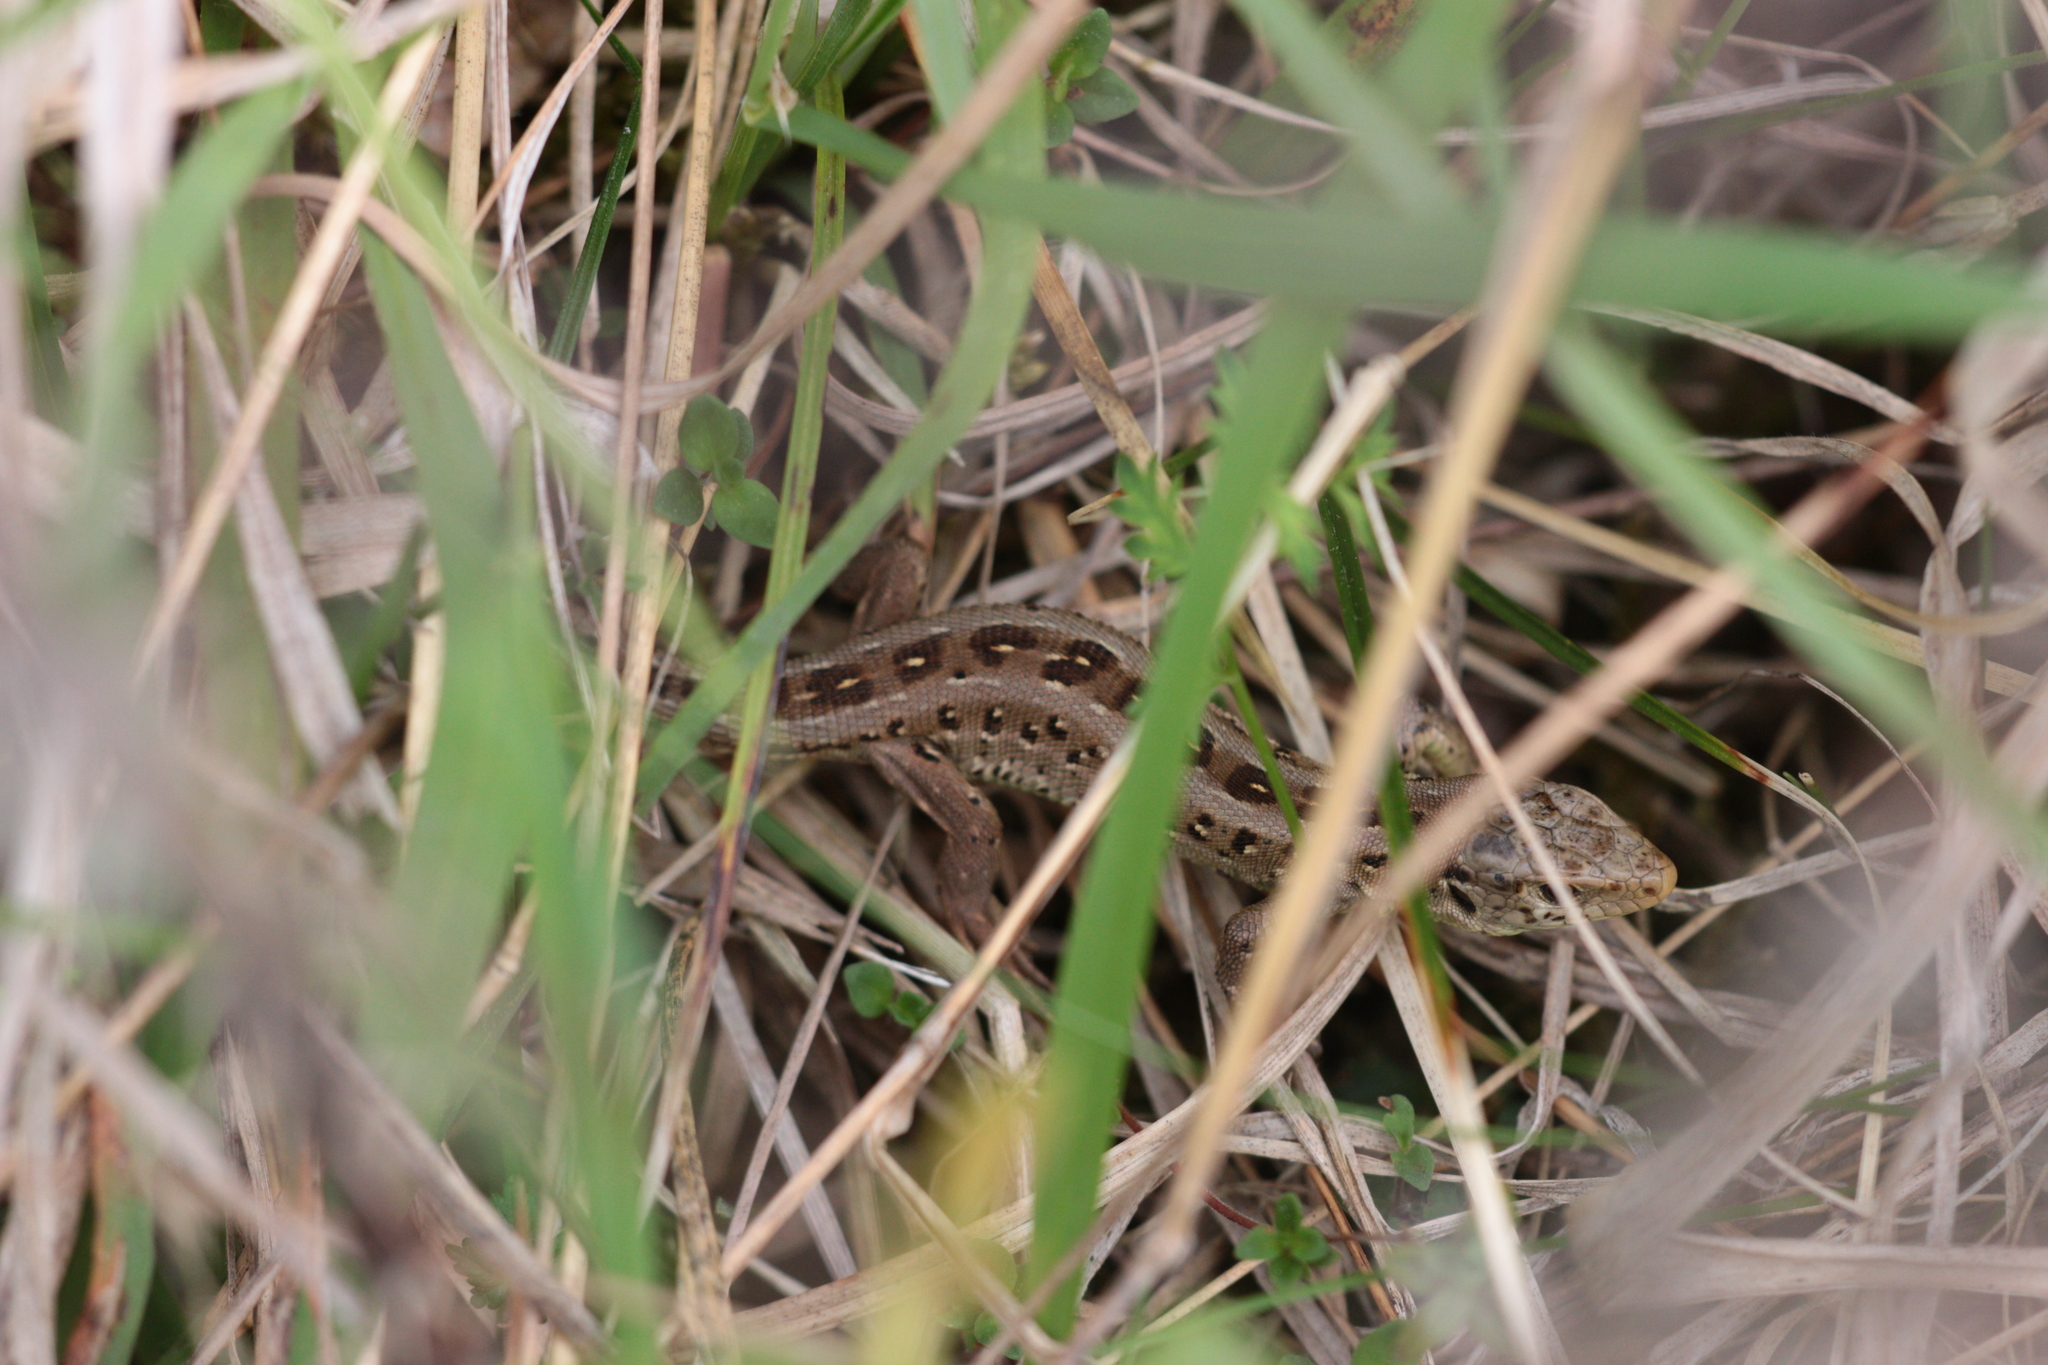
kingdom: Animalia
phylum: Chordata
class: Squamata
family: Lacertidae
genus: Lacerta
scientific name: Lacerta agilis
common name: Sand lizard
